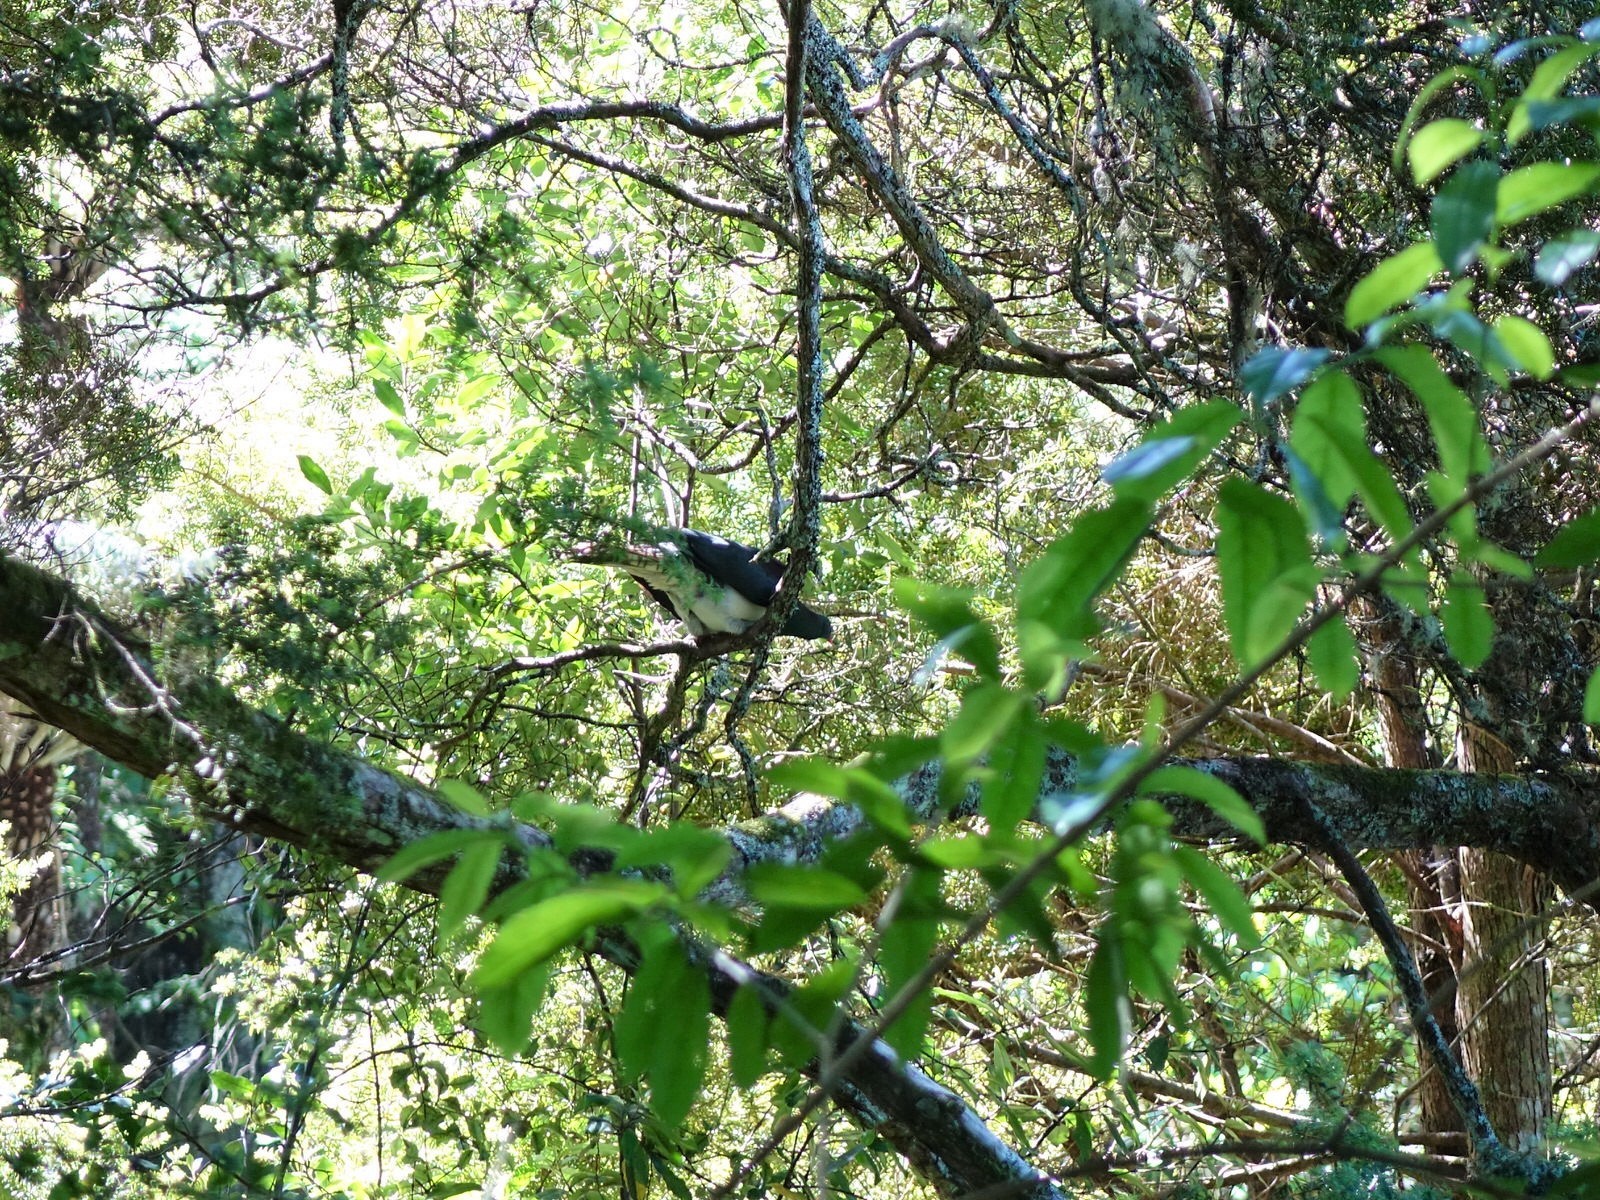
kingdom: Animalia
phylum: Chordata
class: Aves
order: Columbiformes
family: Columbidae
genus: Hemiphaga
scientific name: Hemiphaga novaeseelandiae
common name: New zealand pigeon
